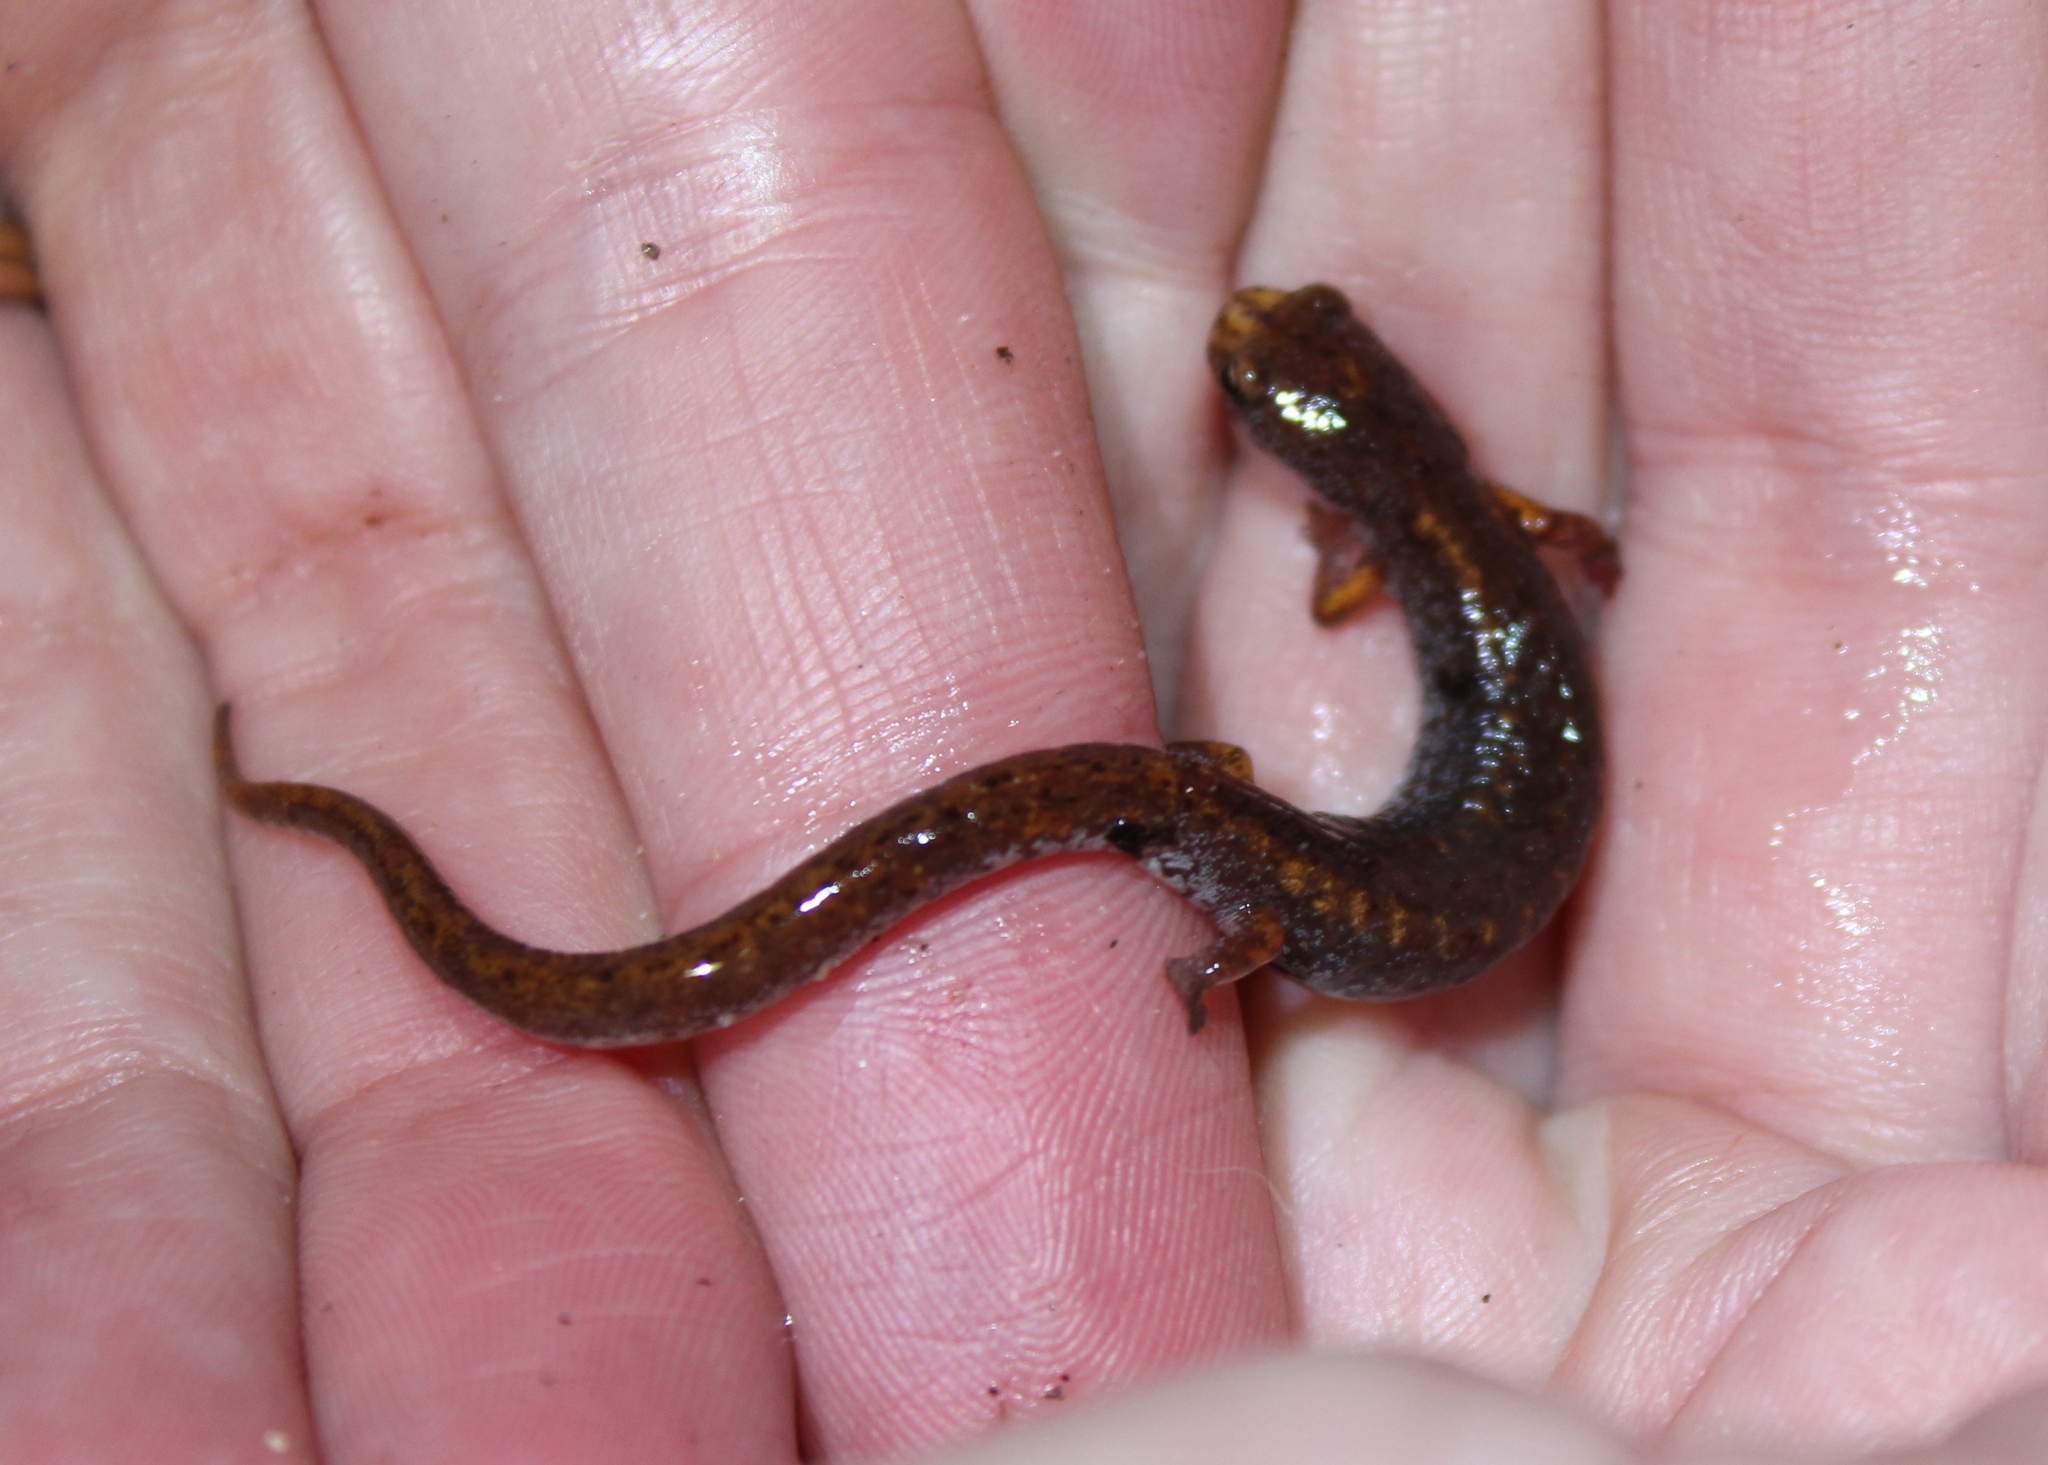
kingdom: Animalia
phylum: Chordata
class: Amphibia
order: Caudata
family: Plethodontidae
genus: Hemidactylium
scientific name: Hemidactylium scutatum
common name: Four-toed salamander
